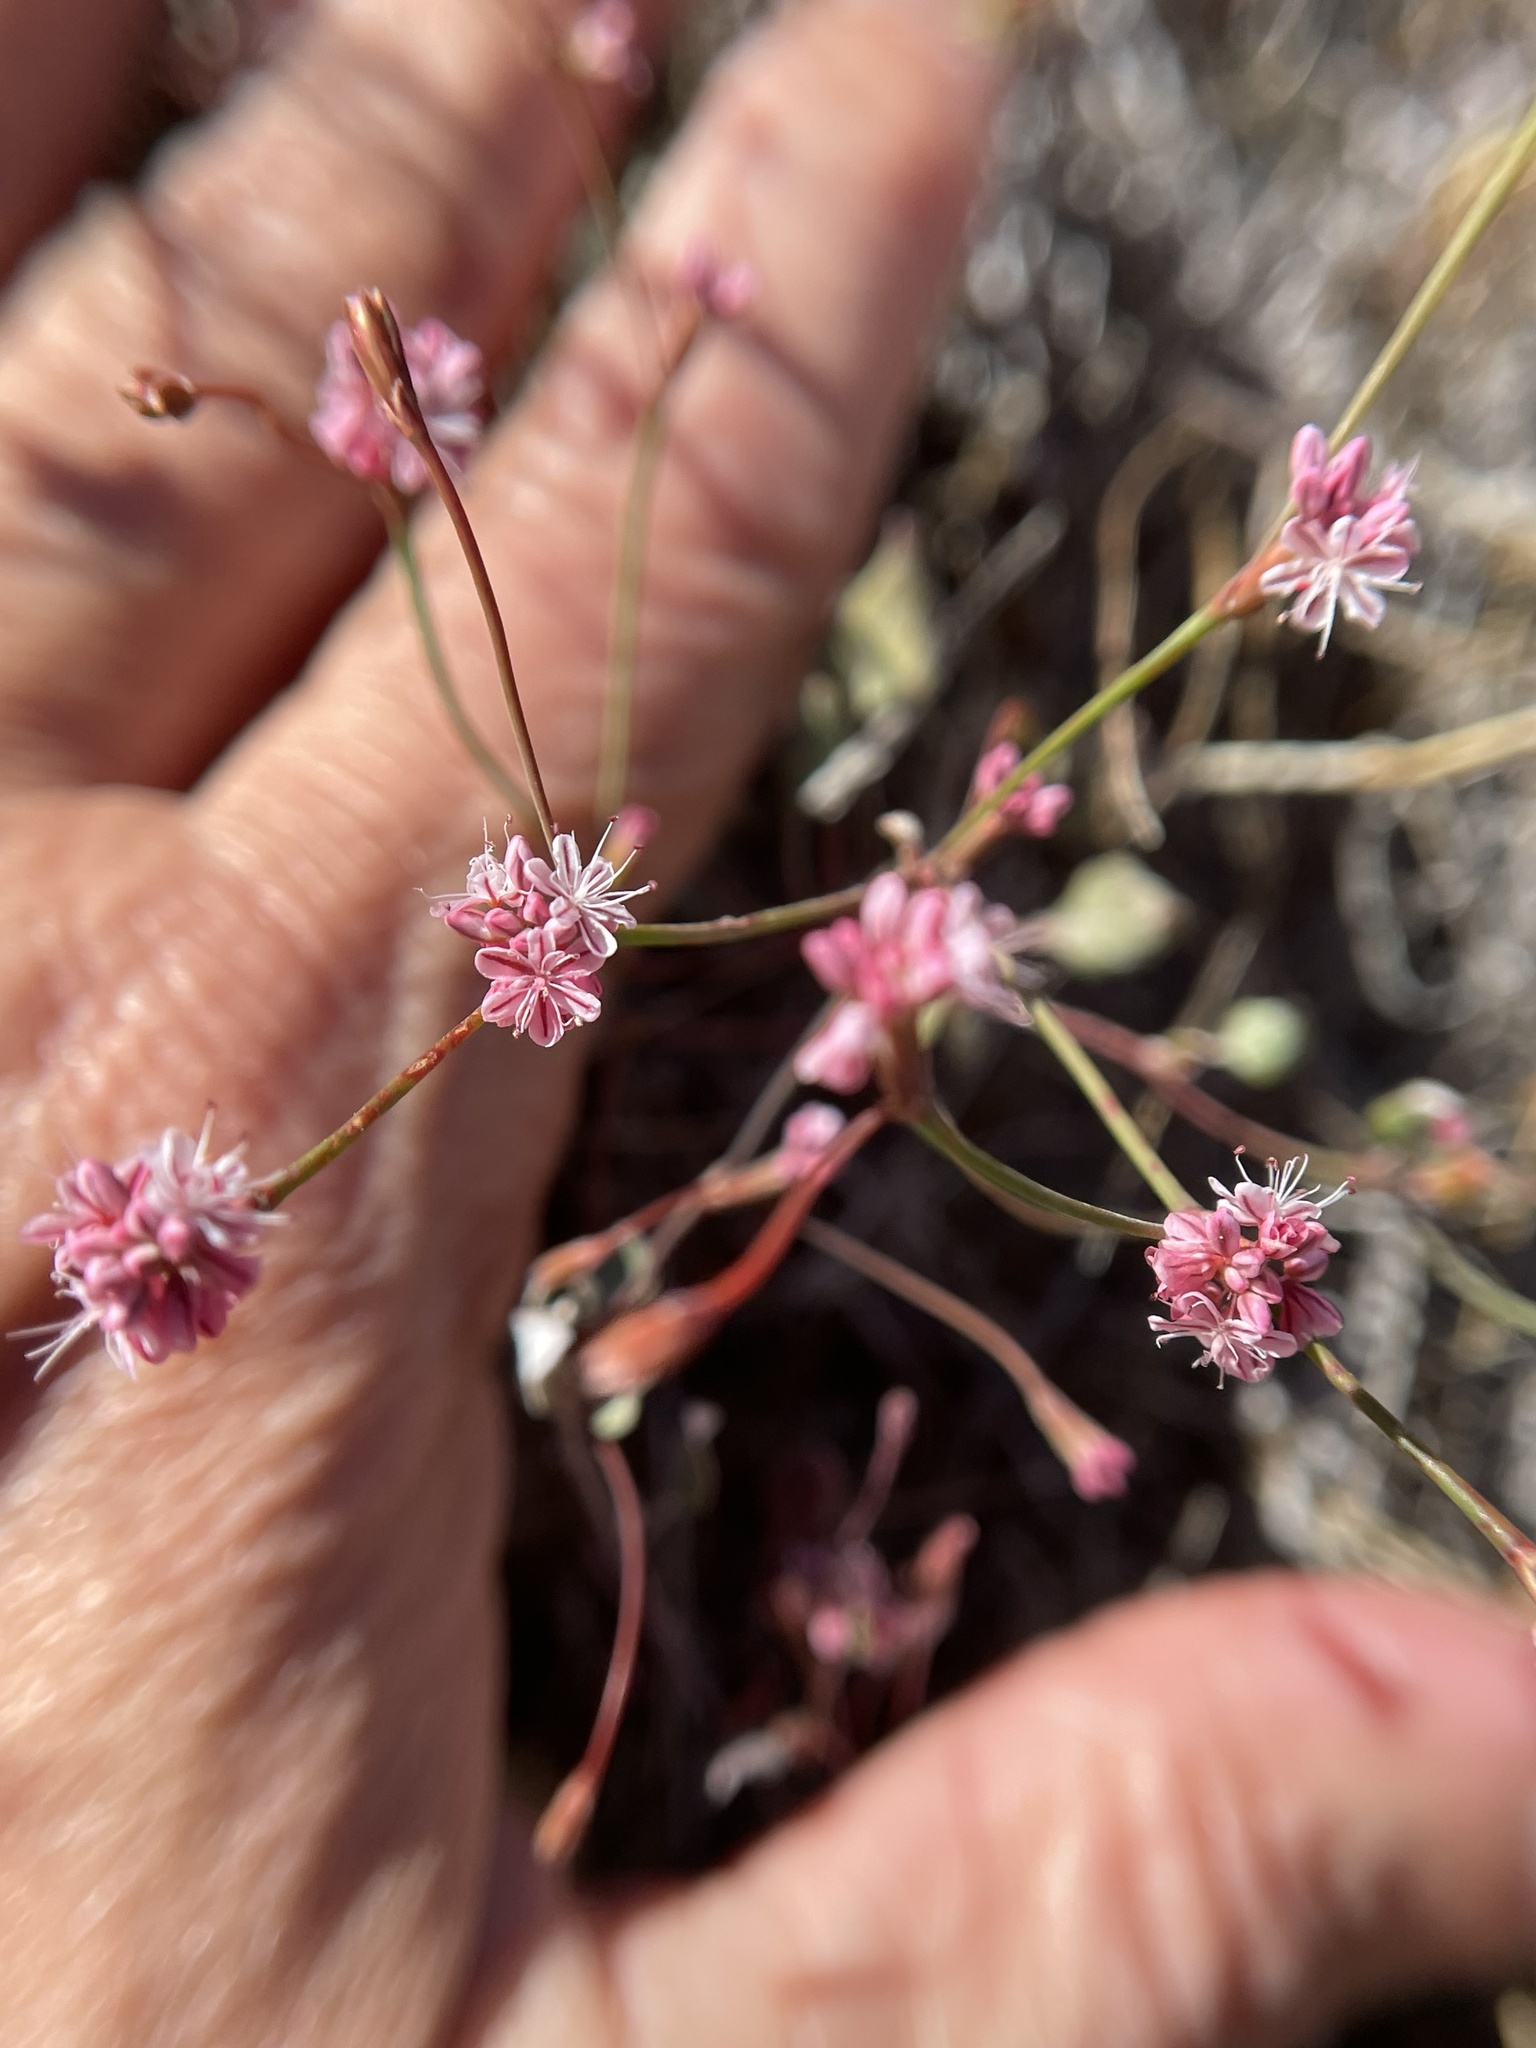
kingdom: Plantae
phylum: Tracheophyta
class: Magnoliopsida
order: Caryophyllales
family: Polygonaceae
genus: Eriogonum
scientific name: Eriogonum luteolum
